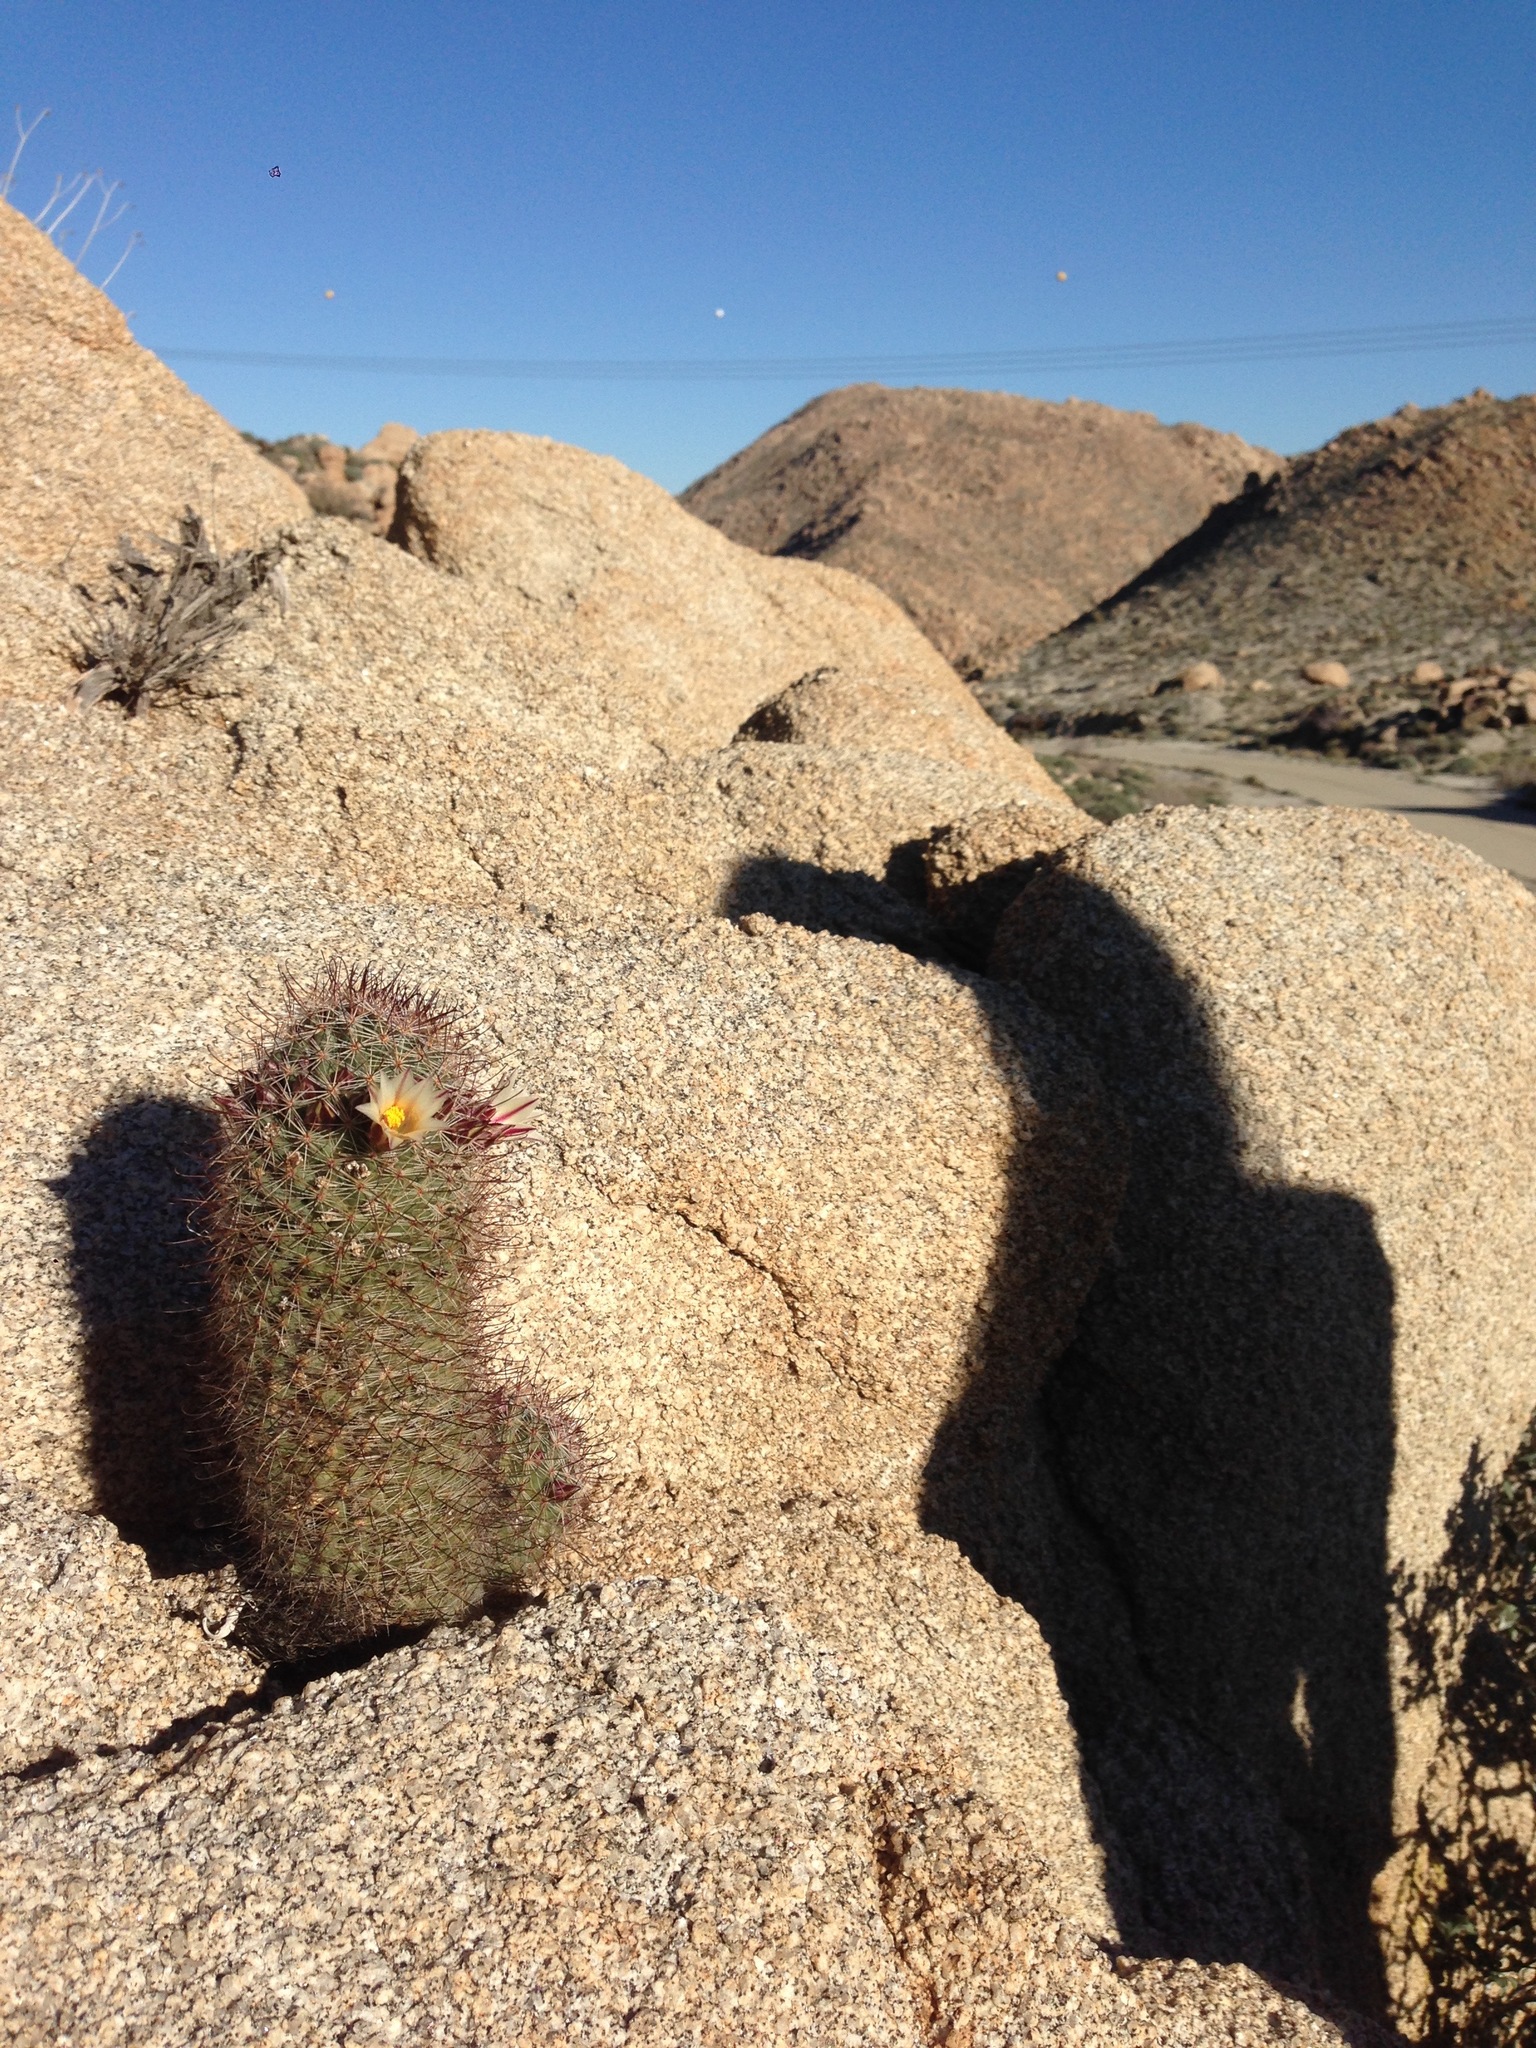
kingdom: Plantae
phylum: Tracheophyta
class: Magnoliopsida
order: Caryophyllales
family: Cactaceae
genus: Cochemiea
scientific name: Cochemiea dioica
